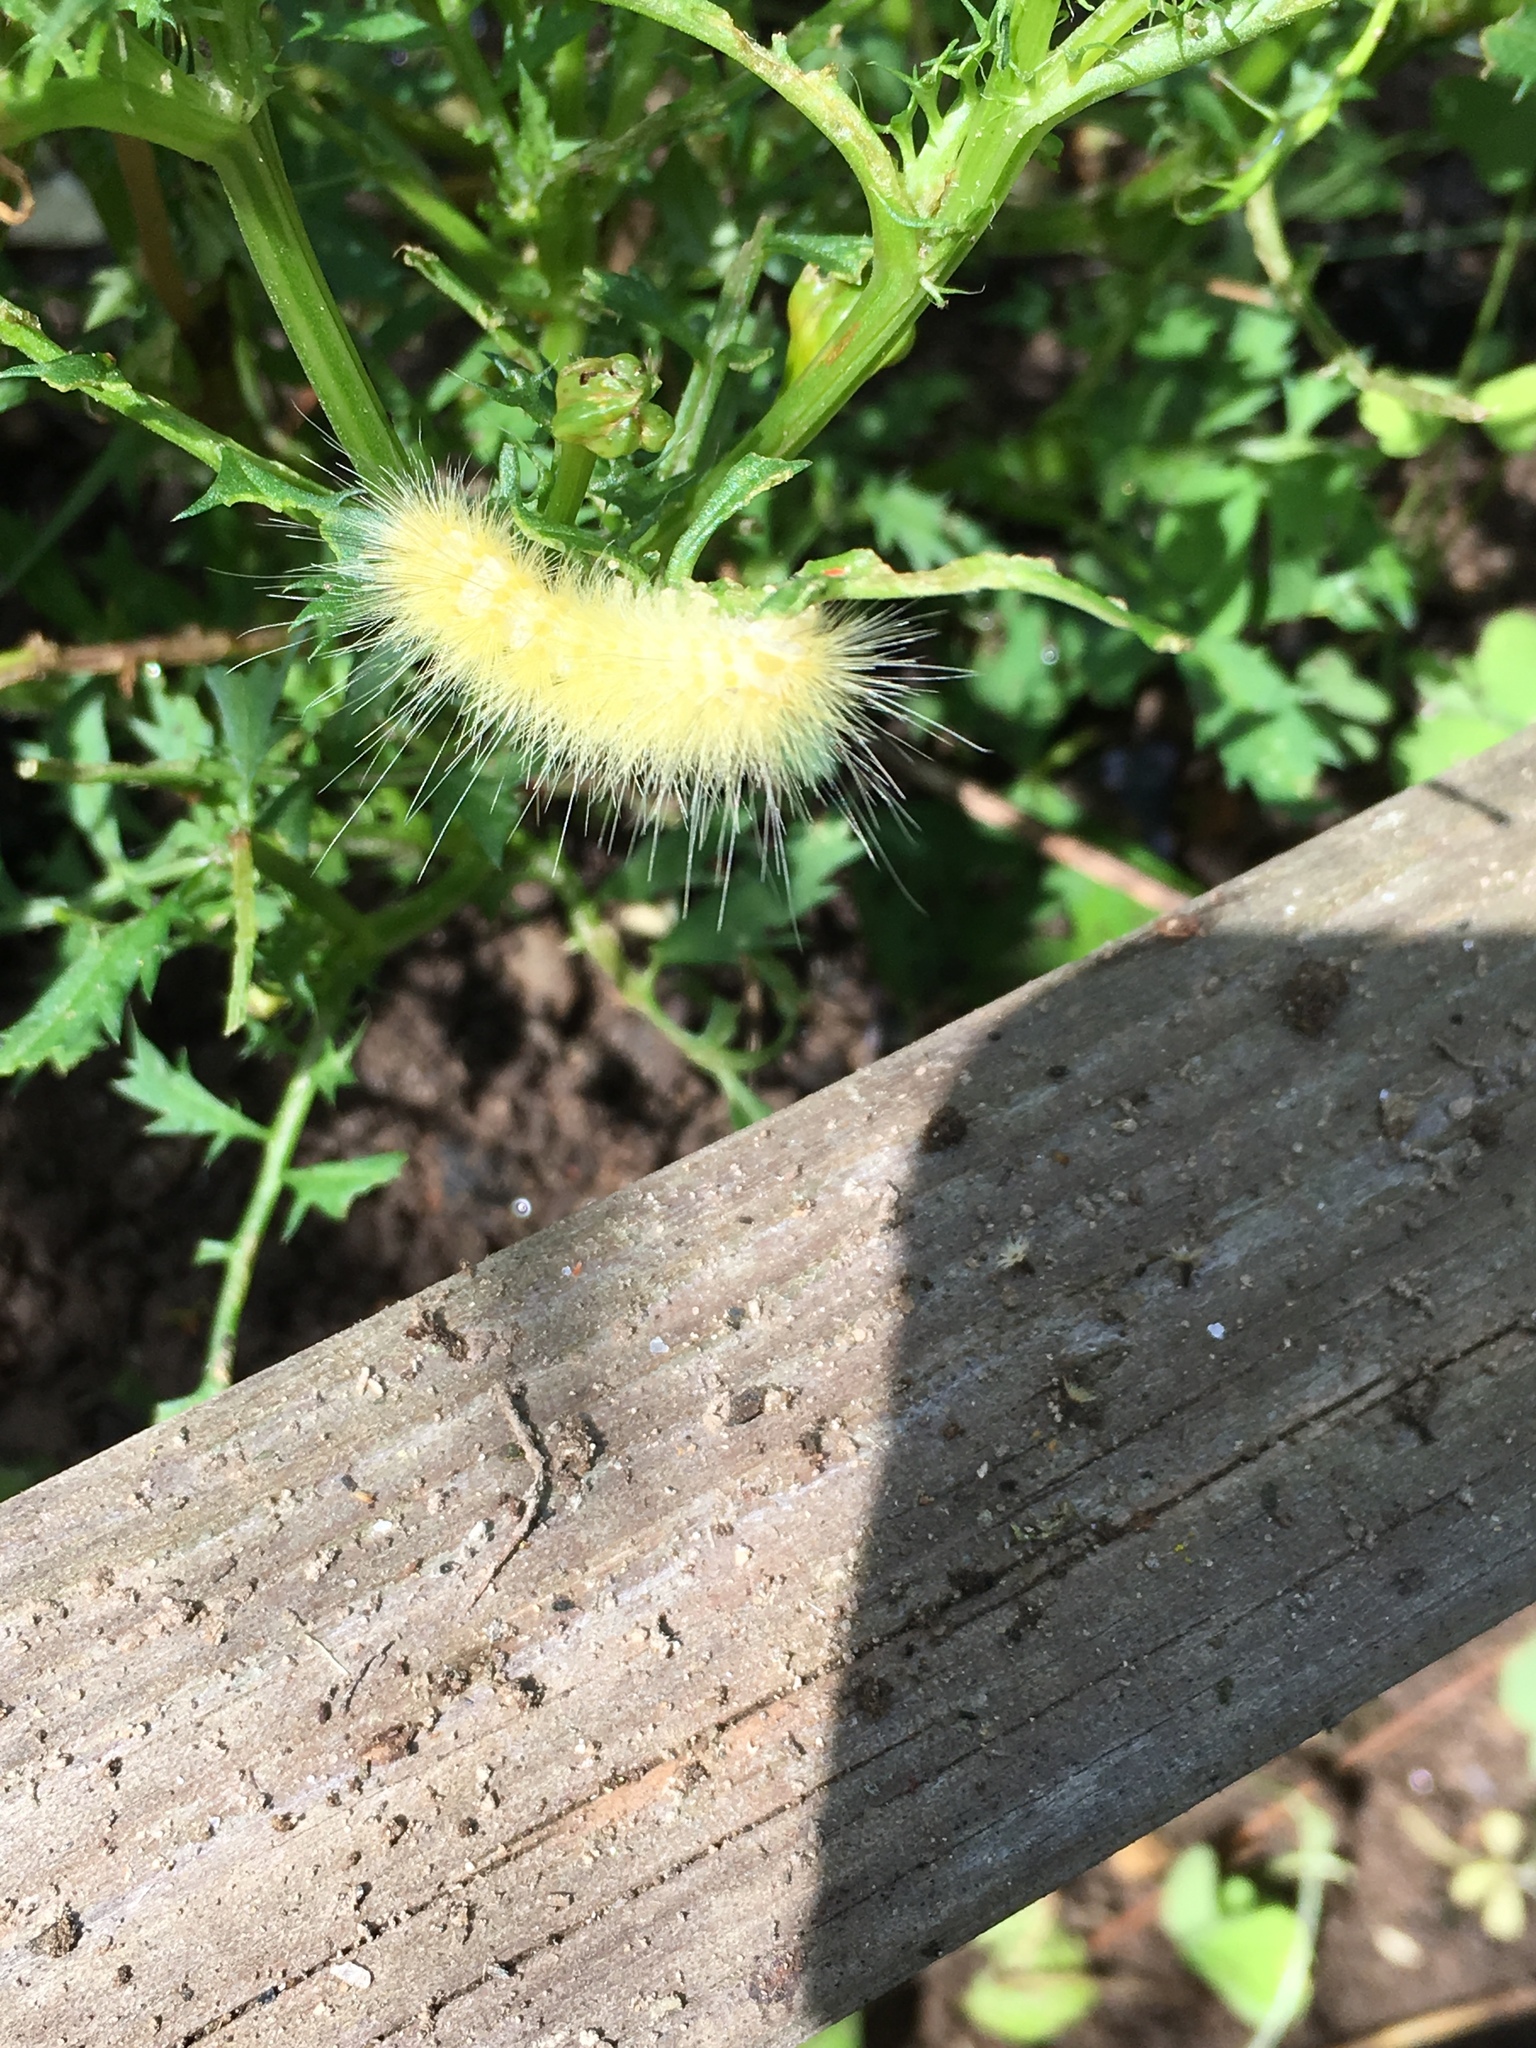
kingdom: Animalia
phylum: Arthropoda
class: Insecta
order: Lepidoptera
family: Erebidae
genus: Spilosoma
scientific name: Spilosoma virginica
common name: Virginia tiger moth
